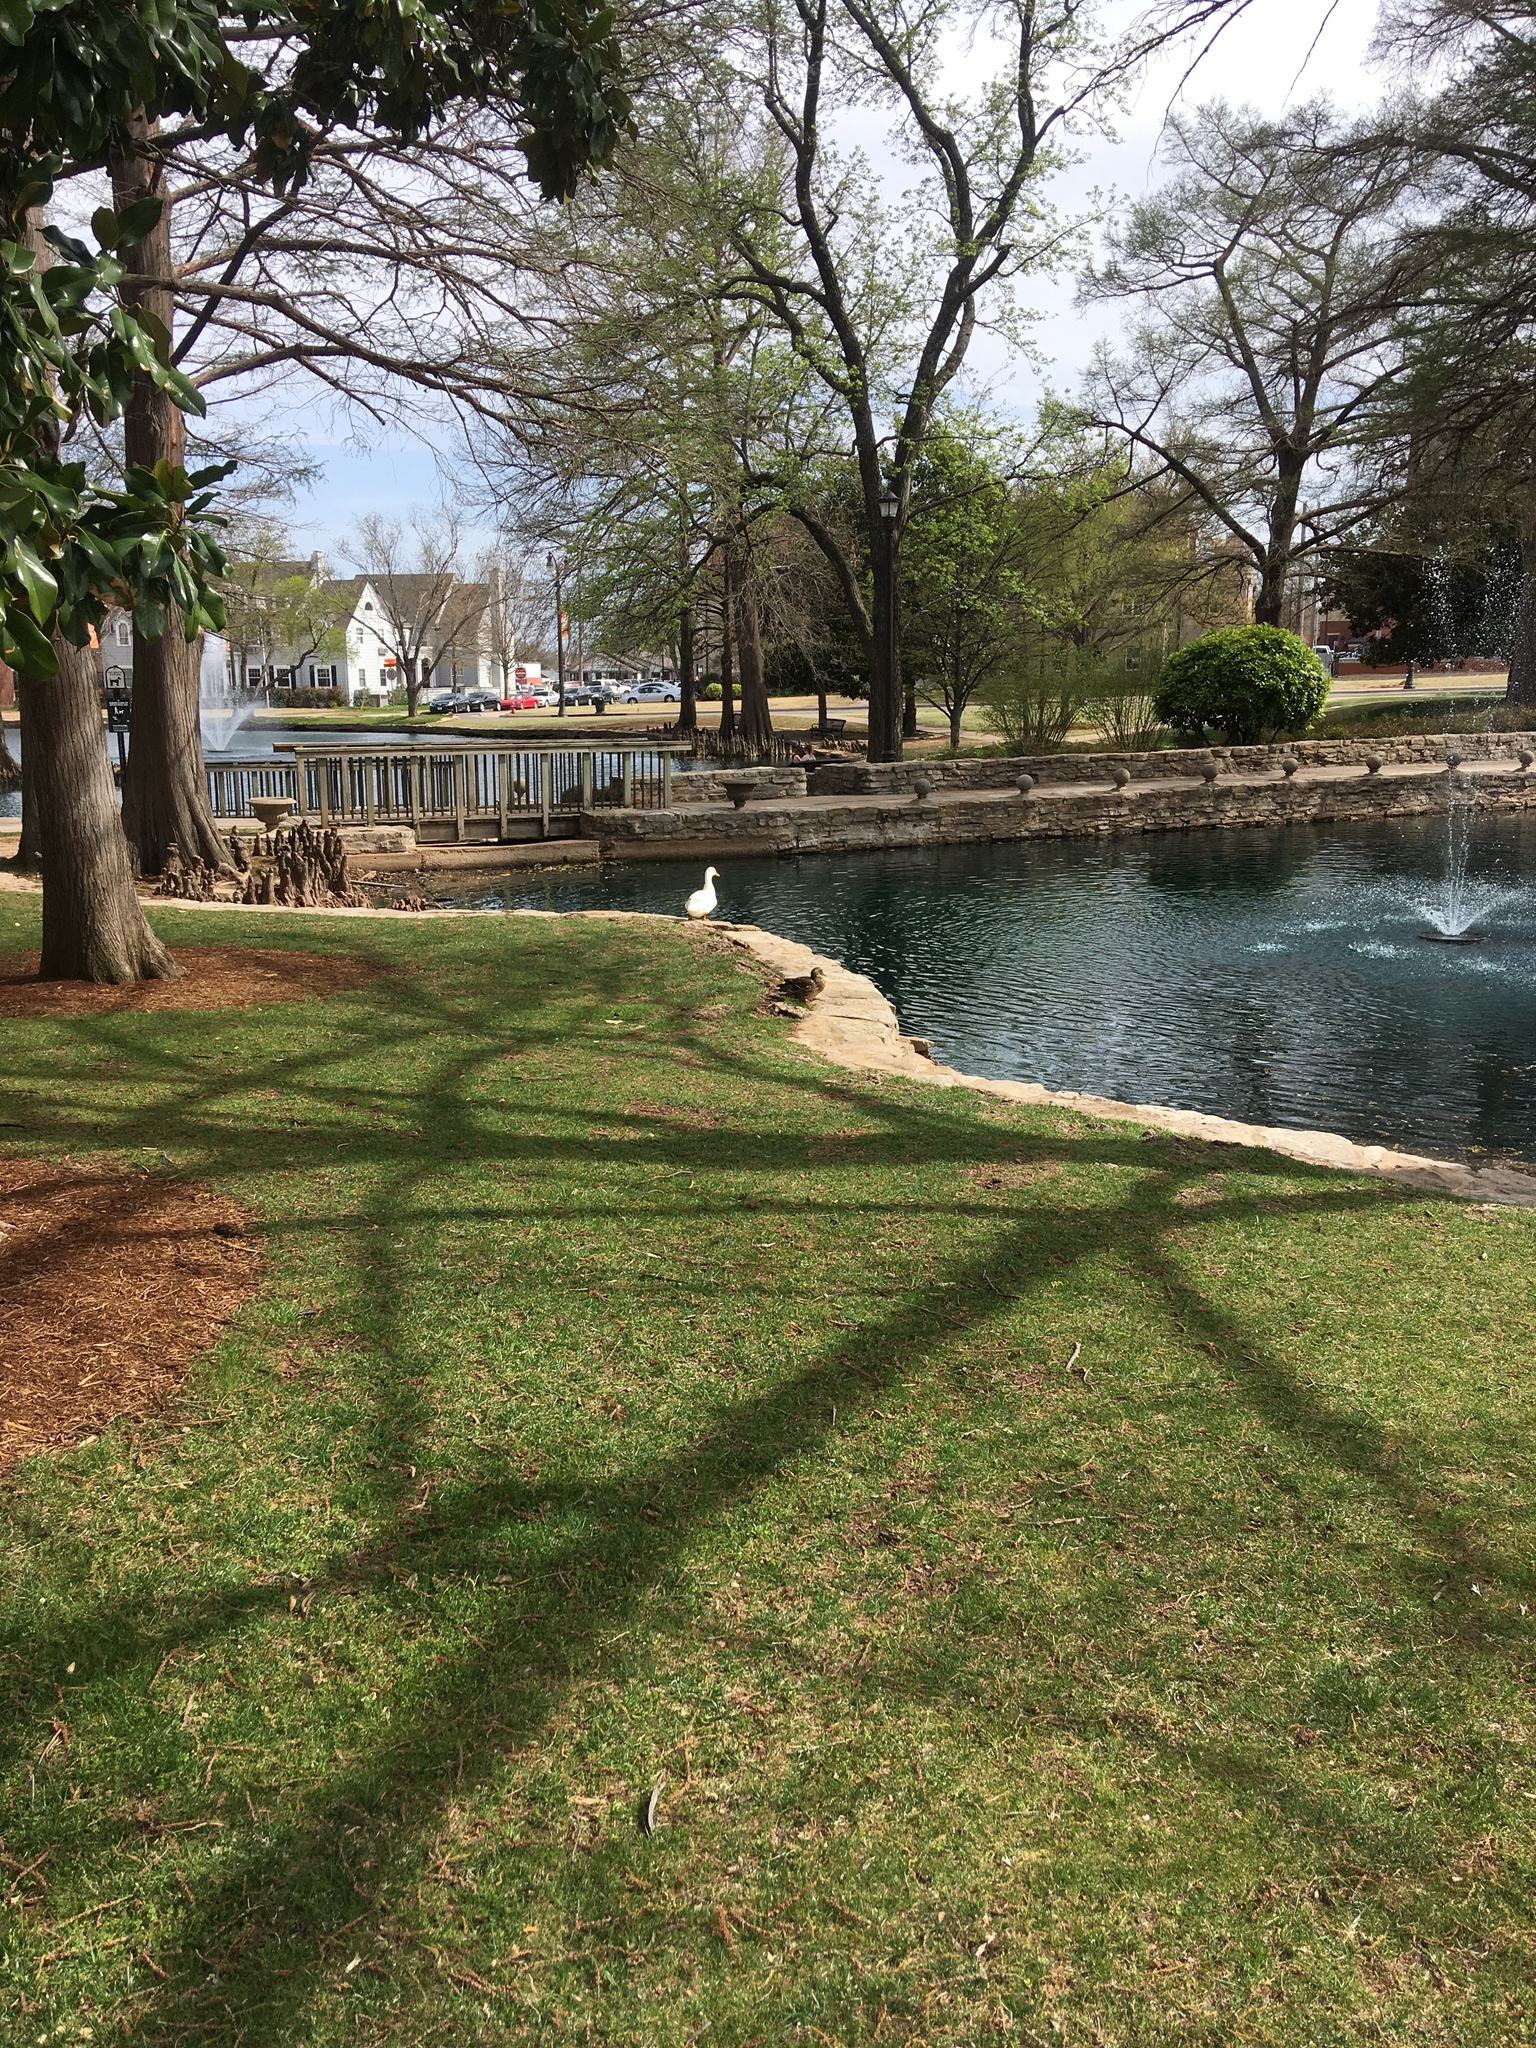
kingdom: Animalia
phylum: Chordata
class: Aves
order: Anseriformes
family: Anatidae
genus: Anas
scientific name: Anas platyrhynchos
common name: Mallard
